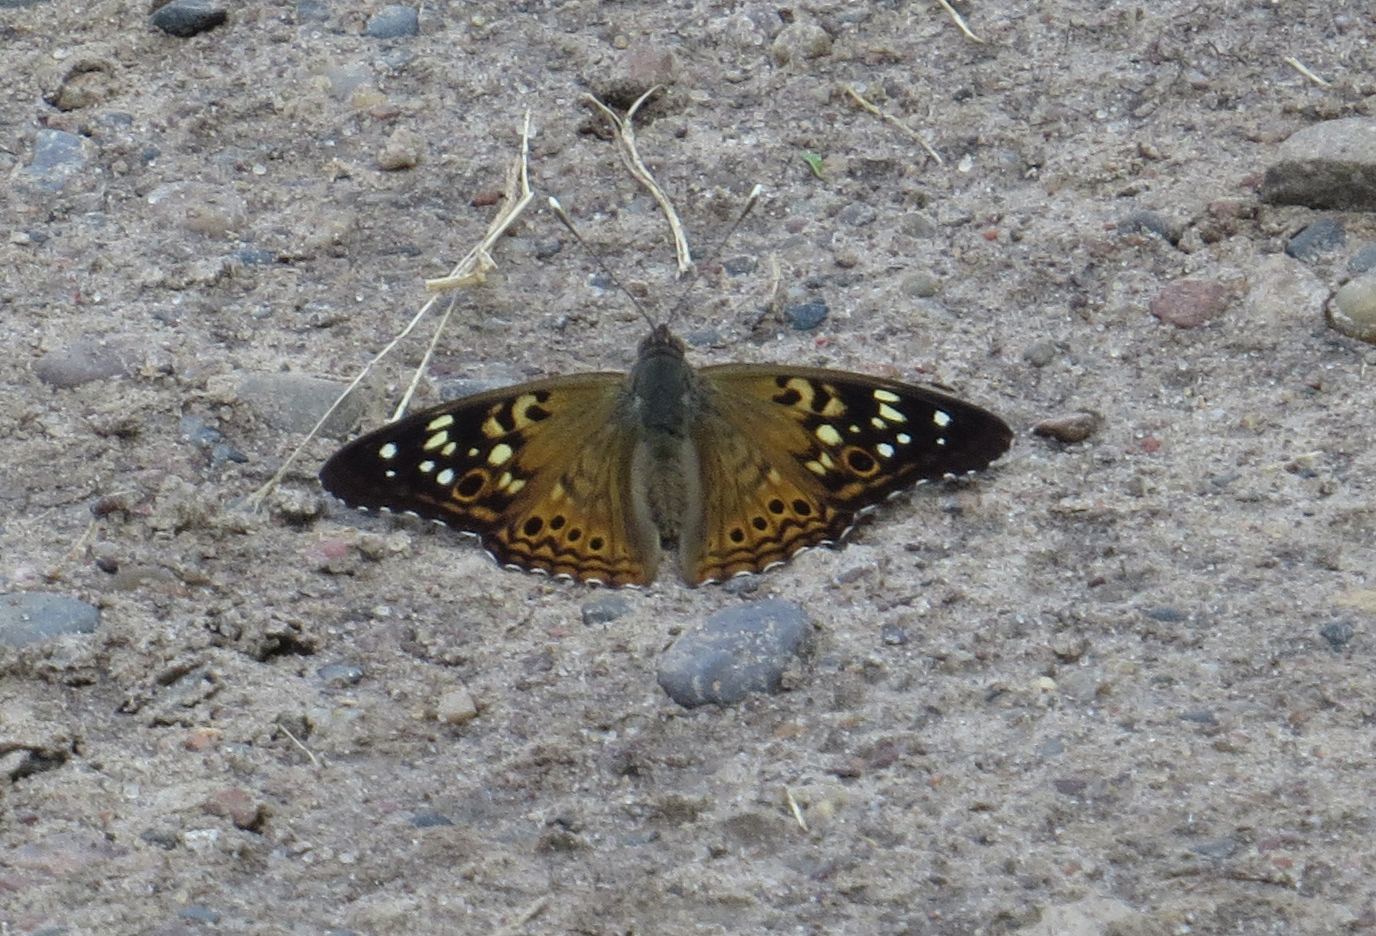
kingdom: Animalia
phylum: Arthropoda
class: Insecta
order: Lepidoptera
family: Nymphalidae
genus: Asterocampa
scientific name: Asterocampa celtis
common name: Hackberry emperor
